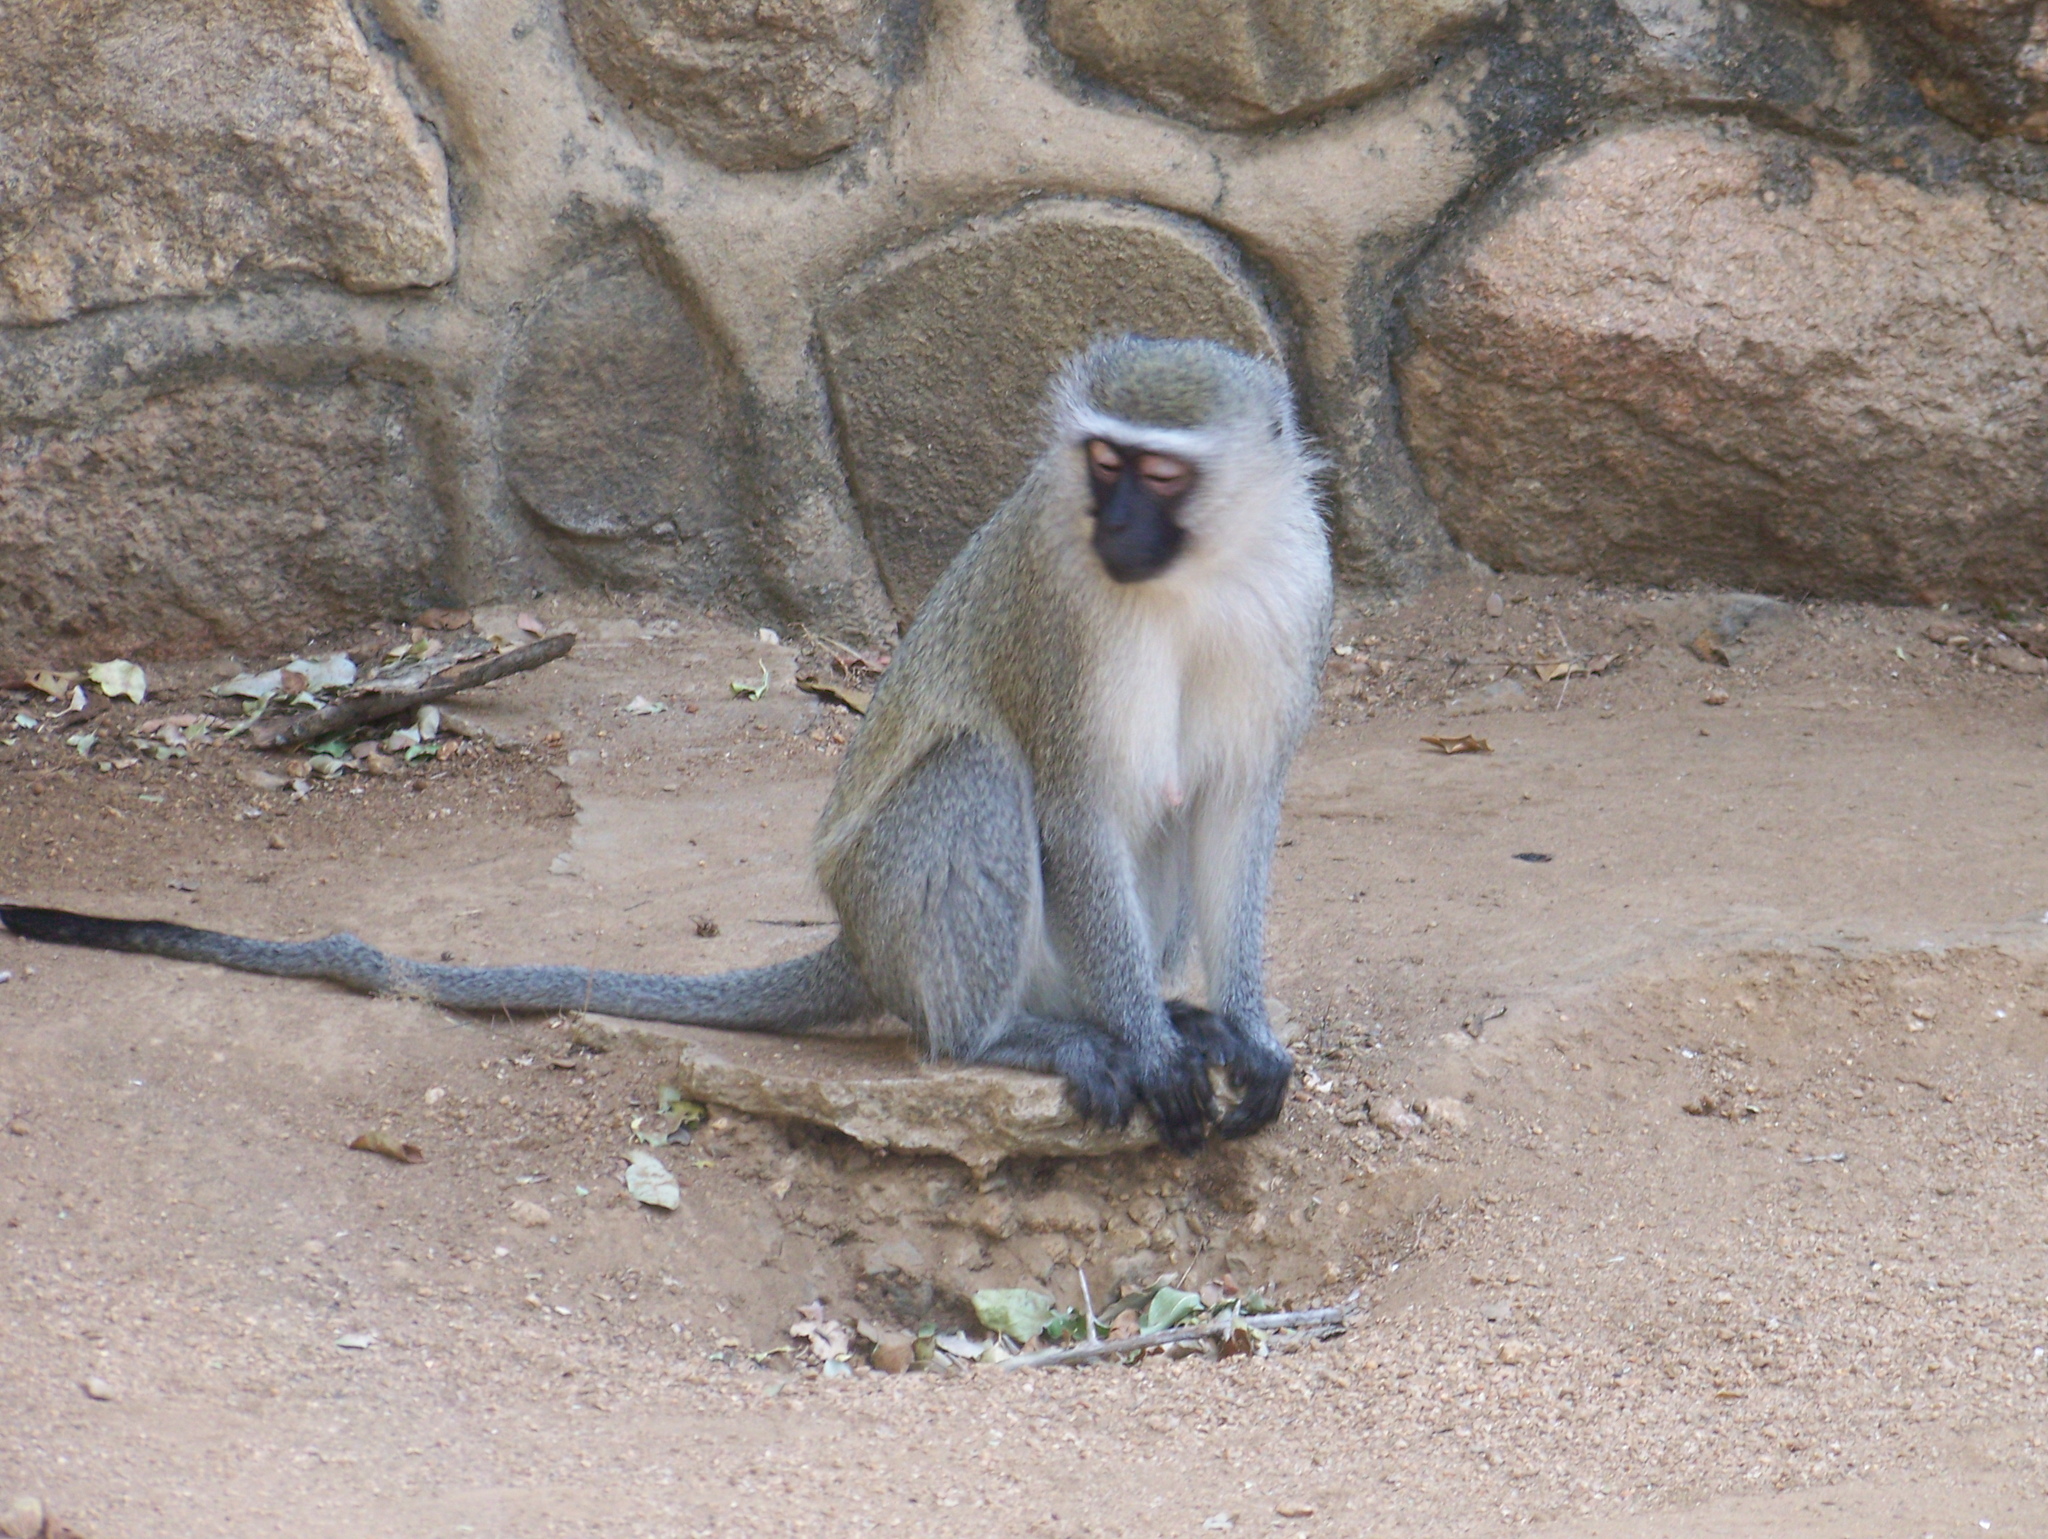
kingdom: Animalia
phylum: Chordata
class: Mammalia
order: Primates
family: Cercopithecidae
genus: Chlorocebus
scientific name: Chlorocebus pygerythrus
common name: Vervet monkey
